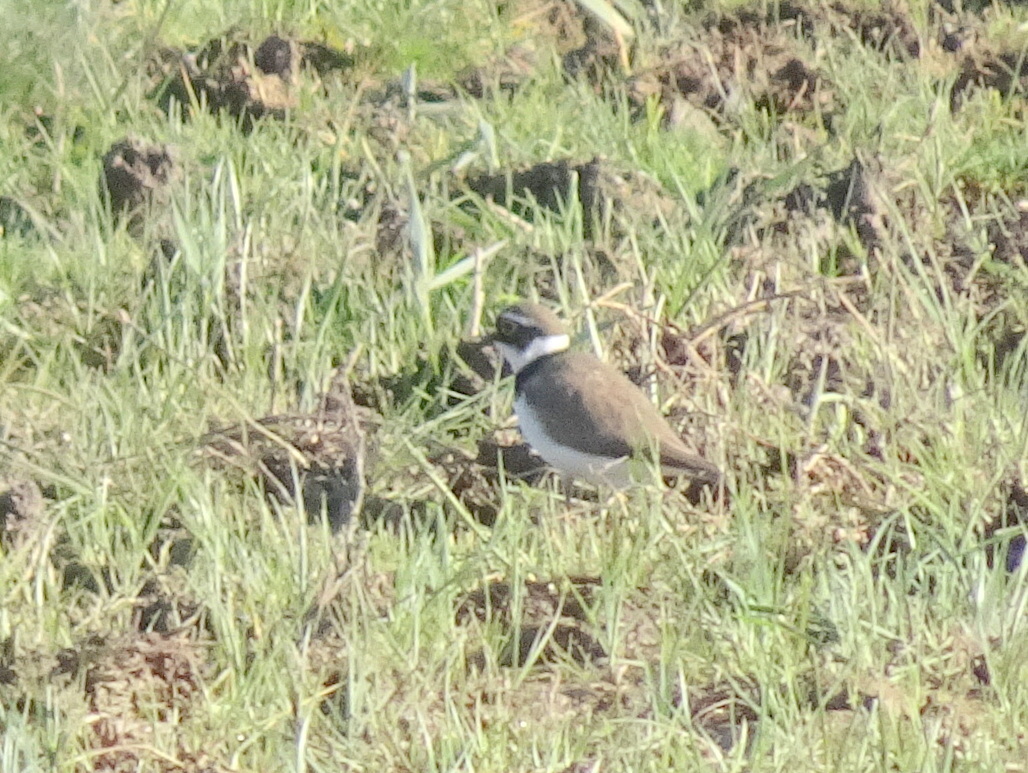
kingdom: Animalia
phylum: Chordata
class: Aves
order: Charadriiformes
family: Charadriidae
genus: Charadrius
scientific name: Charadrius dubius
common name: Little ringed plover
